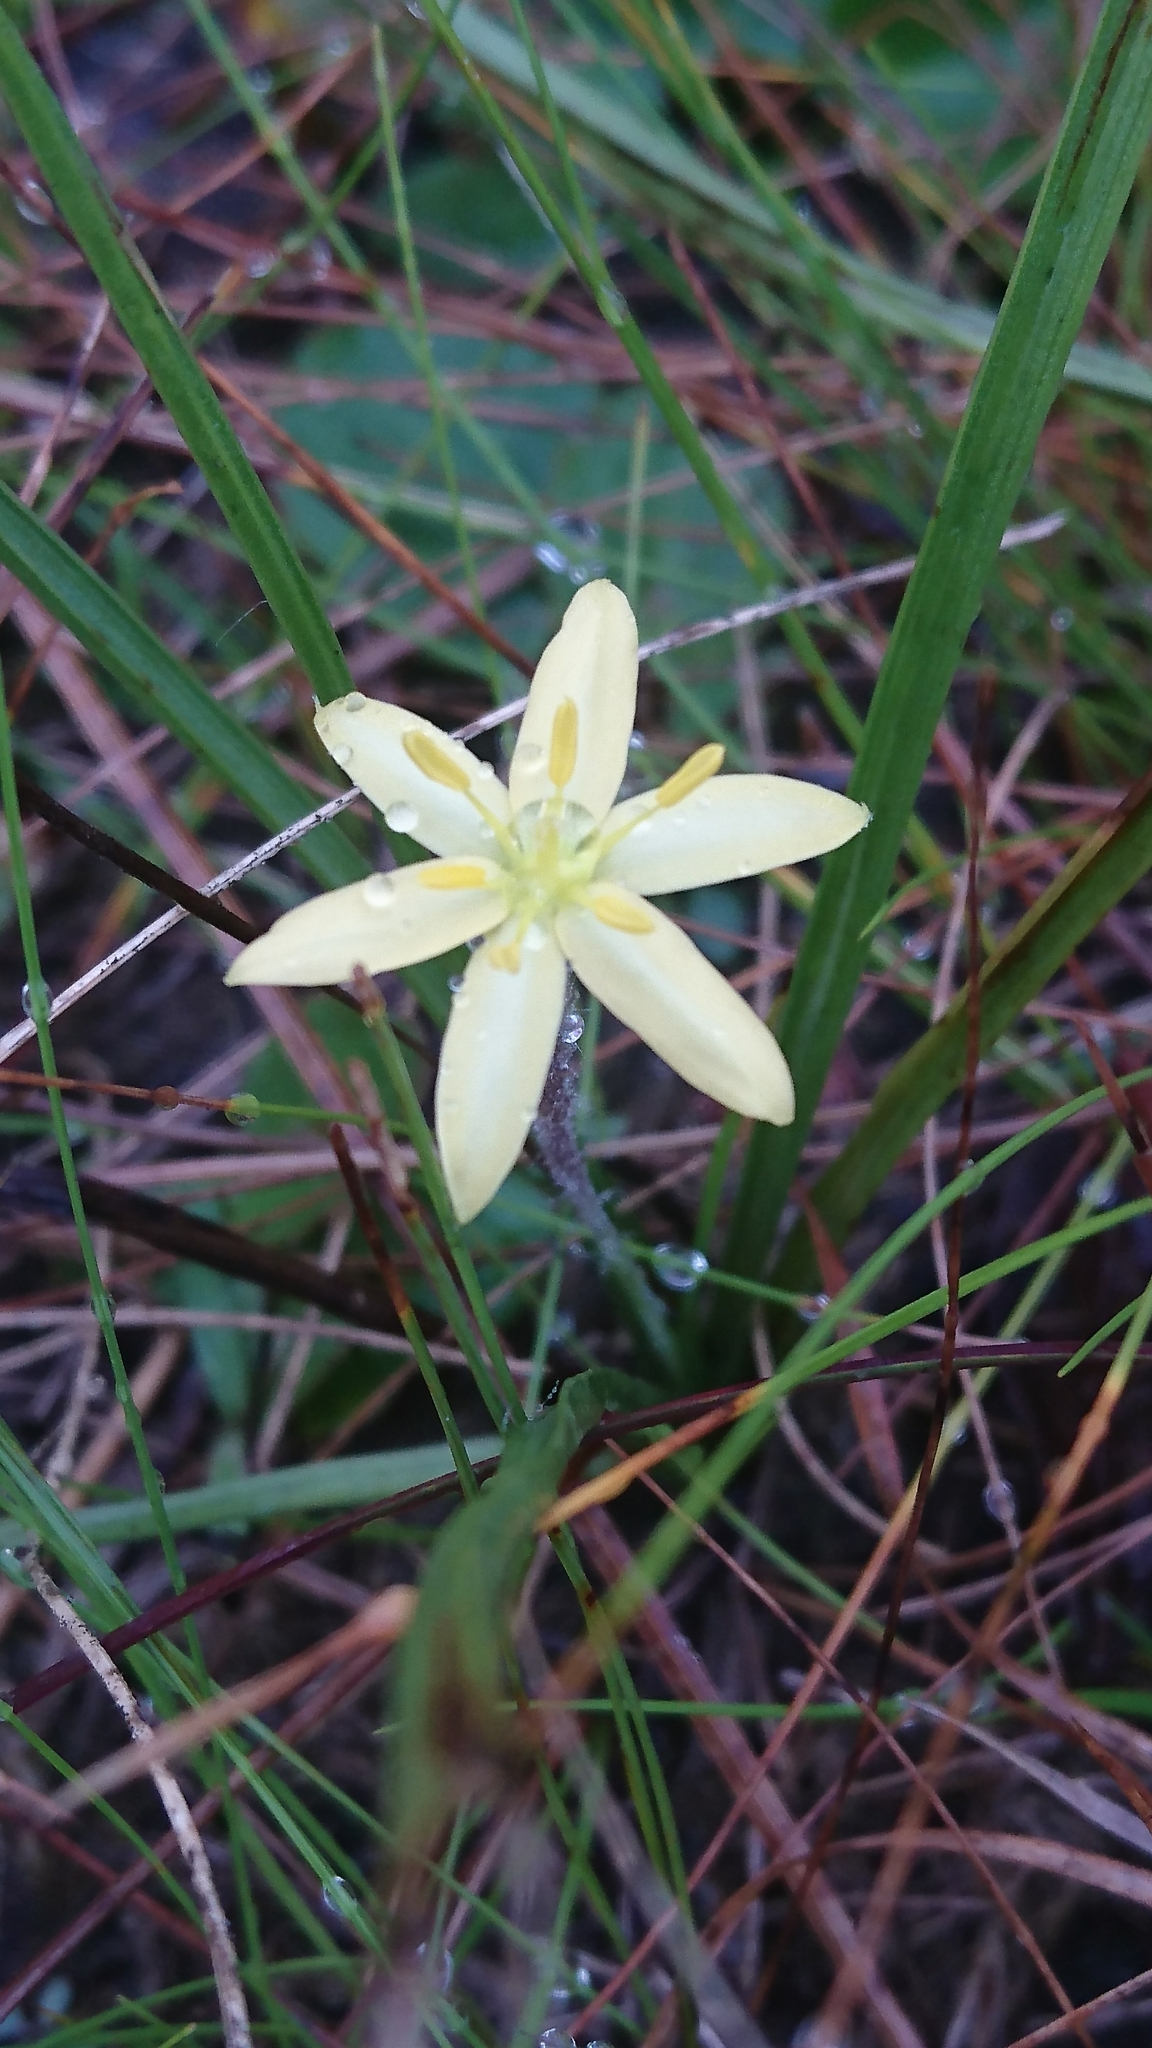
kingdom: Plantae
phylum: Tracheophyta
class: Liliopsida
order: Asparagales
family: Hypoxidaceae
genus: Hypoxis
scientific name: Hypoxis hirsuta
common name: Common goldstar
